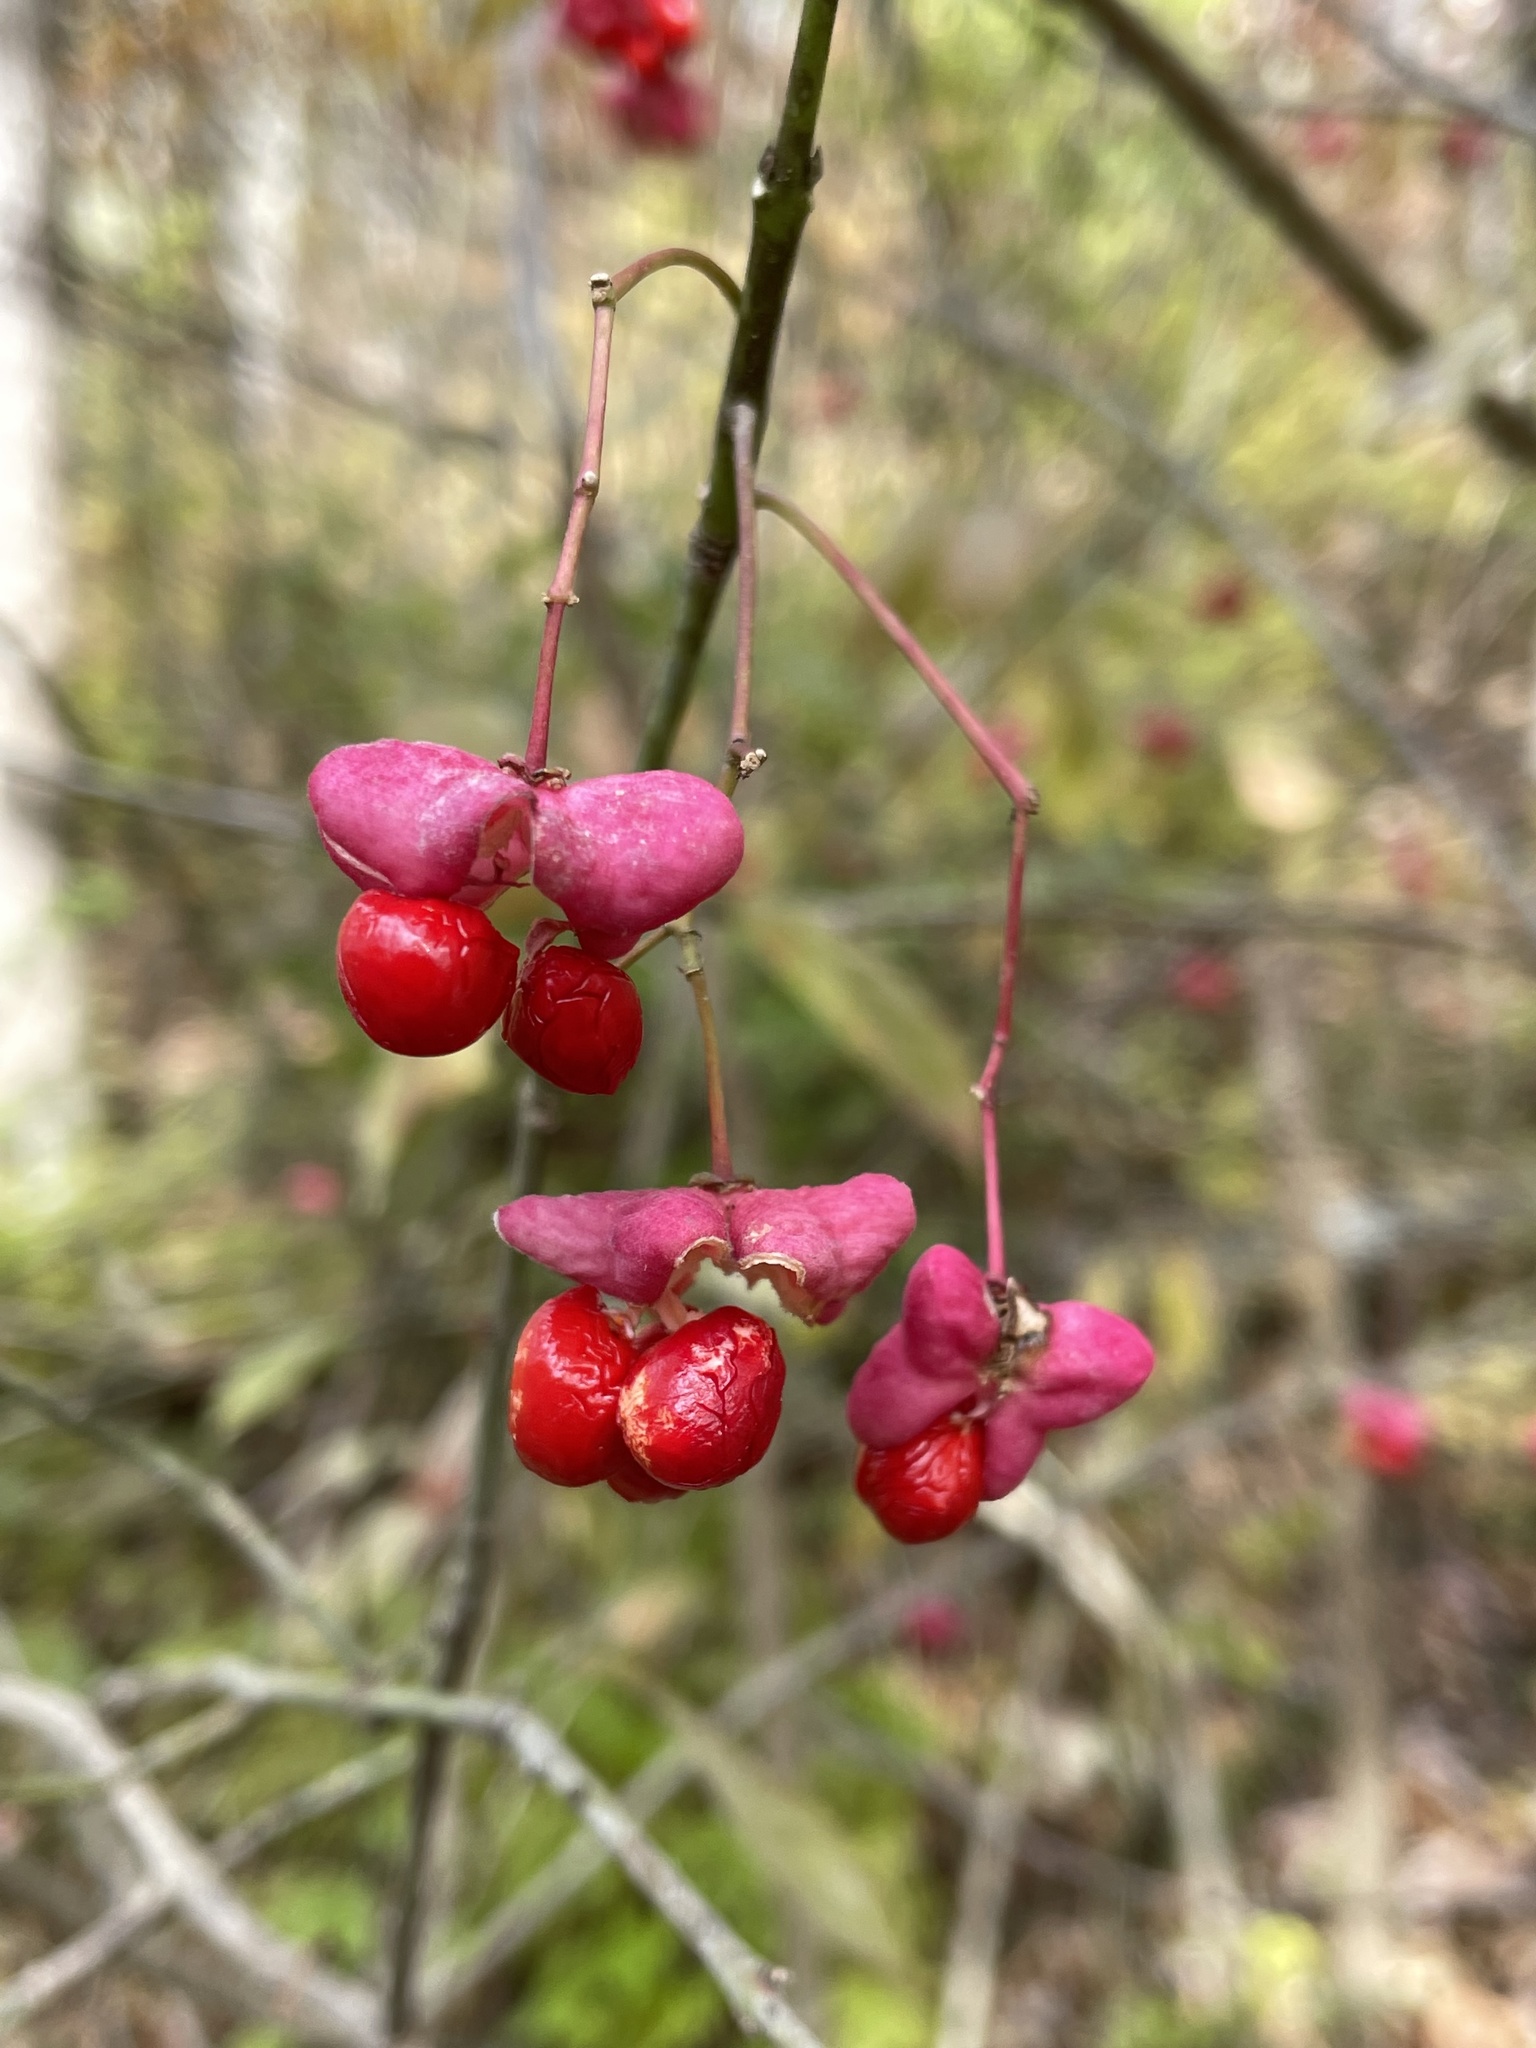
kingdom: Plantae
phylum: Tracheophyta
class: Magnoliopsida
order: Celastrales
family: Celastraceae
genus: Euonymus
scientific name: Euonymus atropurpureus
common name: Eastern wahoo
